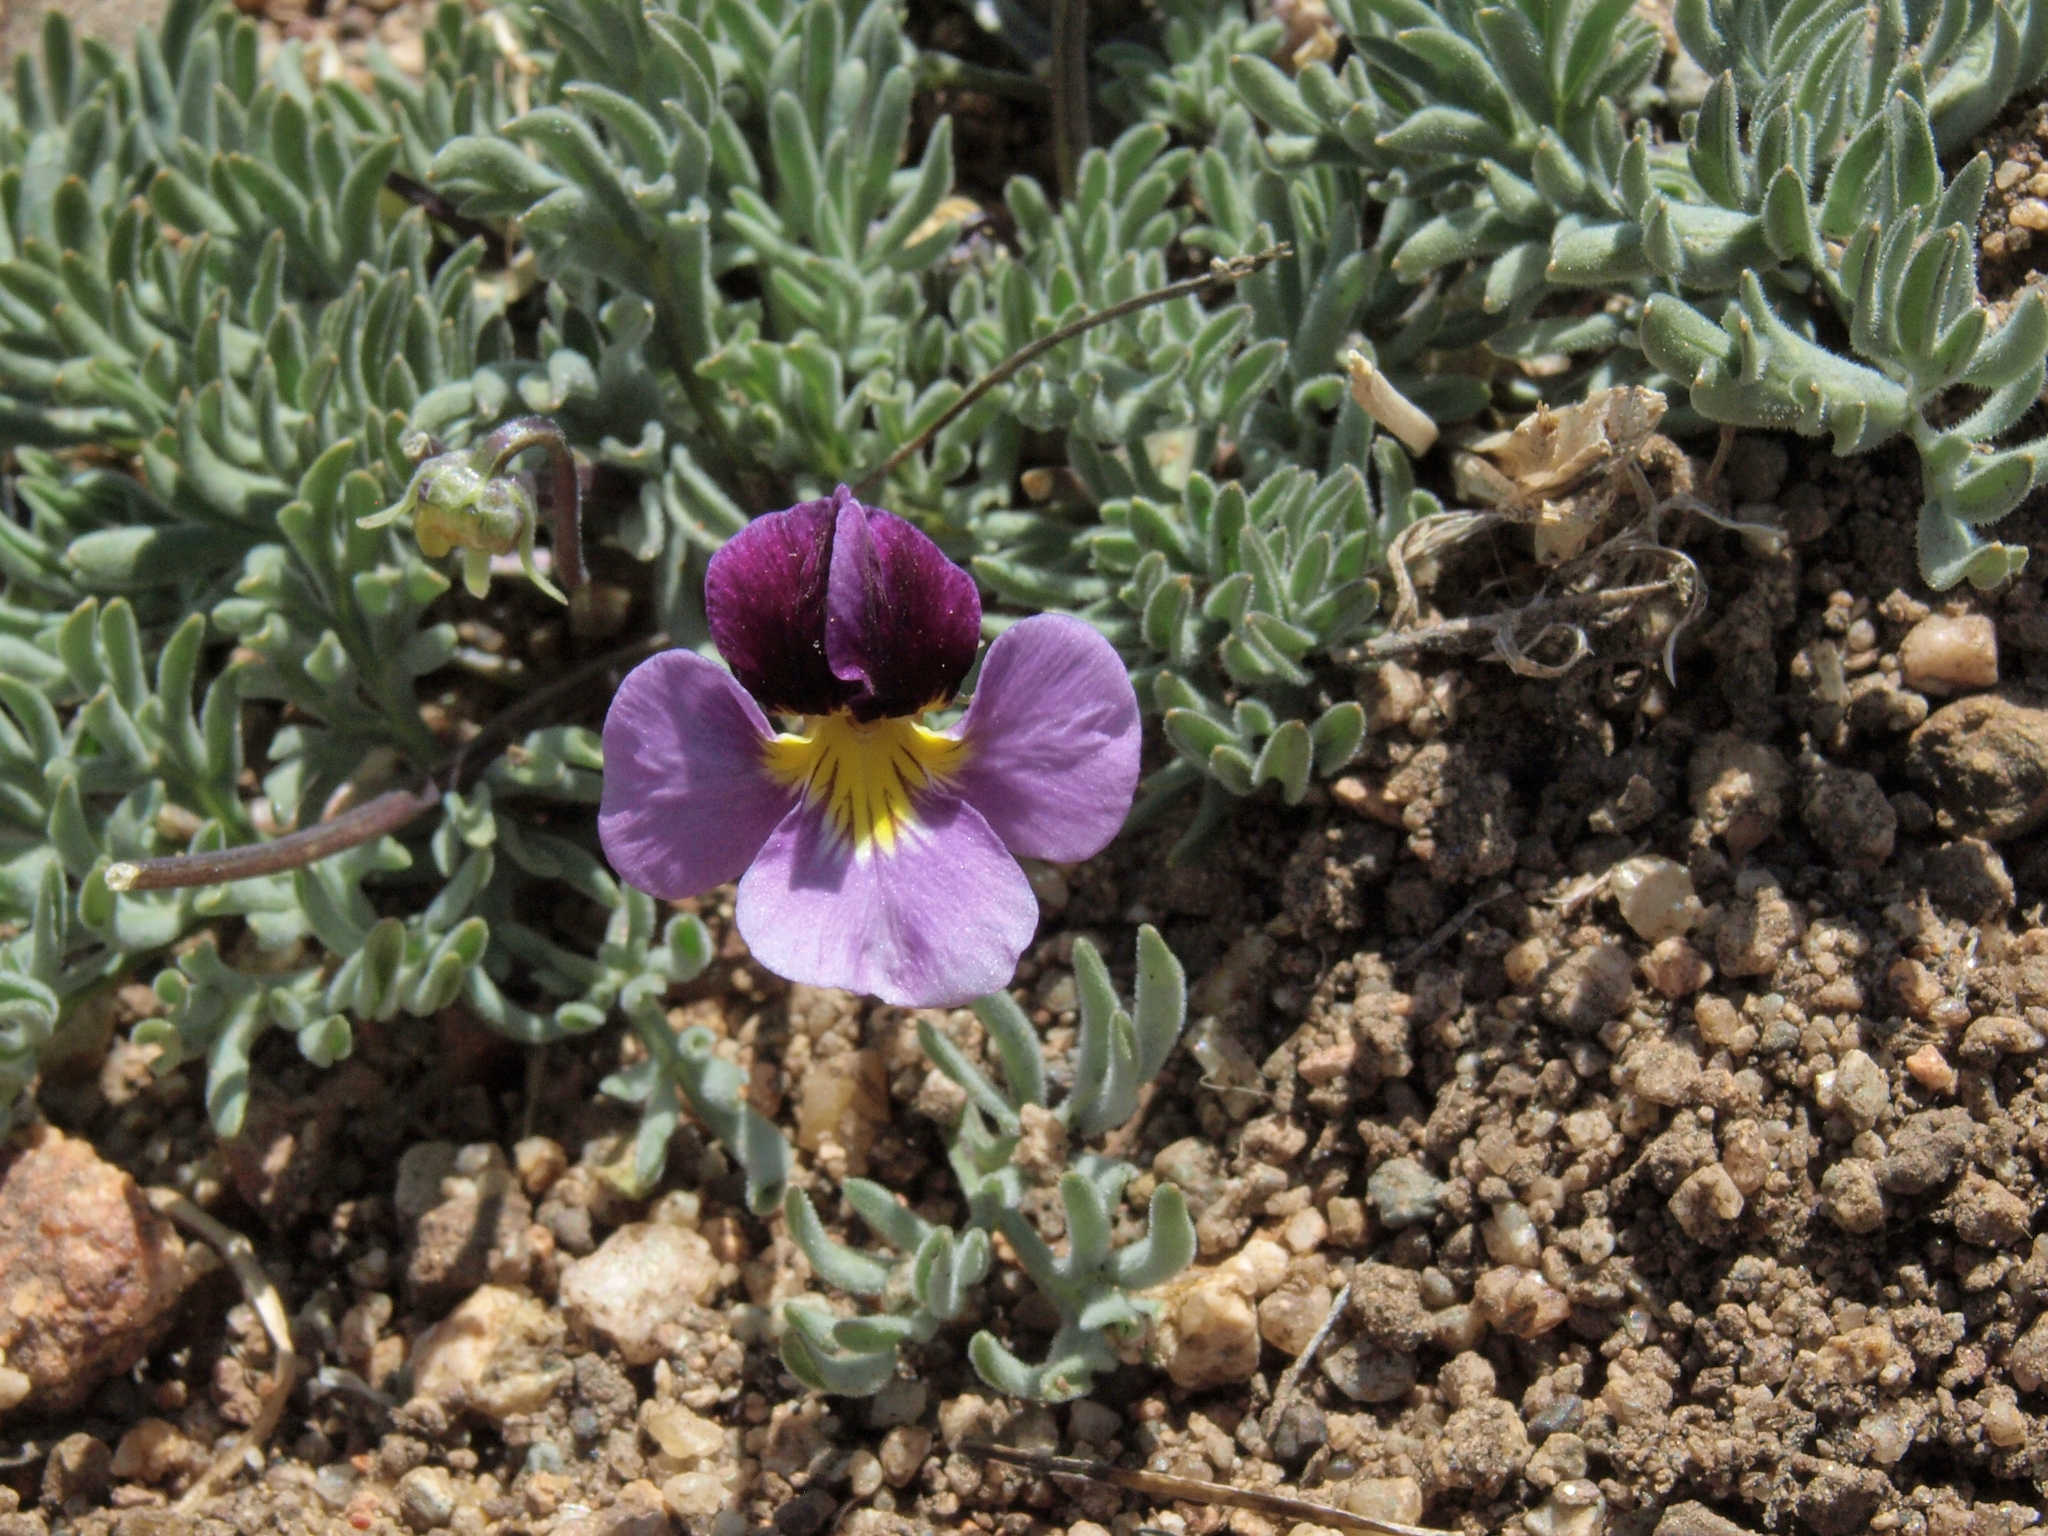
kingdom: Plantae
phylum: Tracheophyta
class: Magnoliopsida
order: Malpighiales
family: Violaceae
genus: Viola
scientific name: Viola beckwithii
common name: Beckwith's violet
